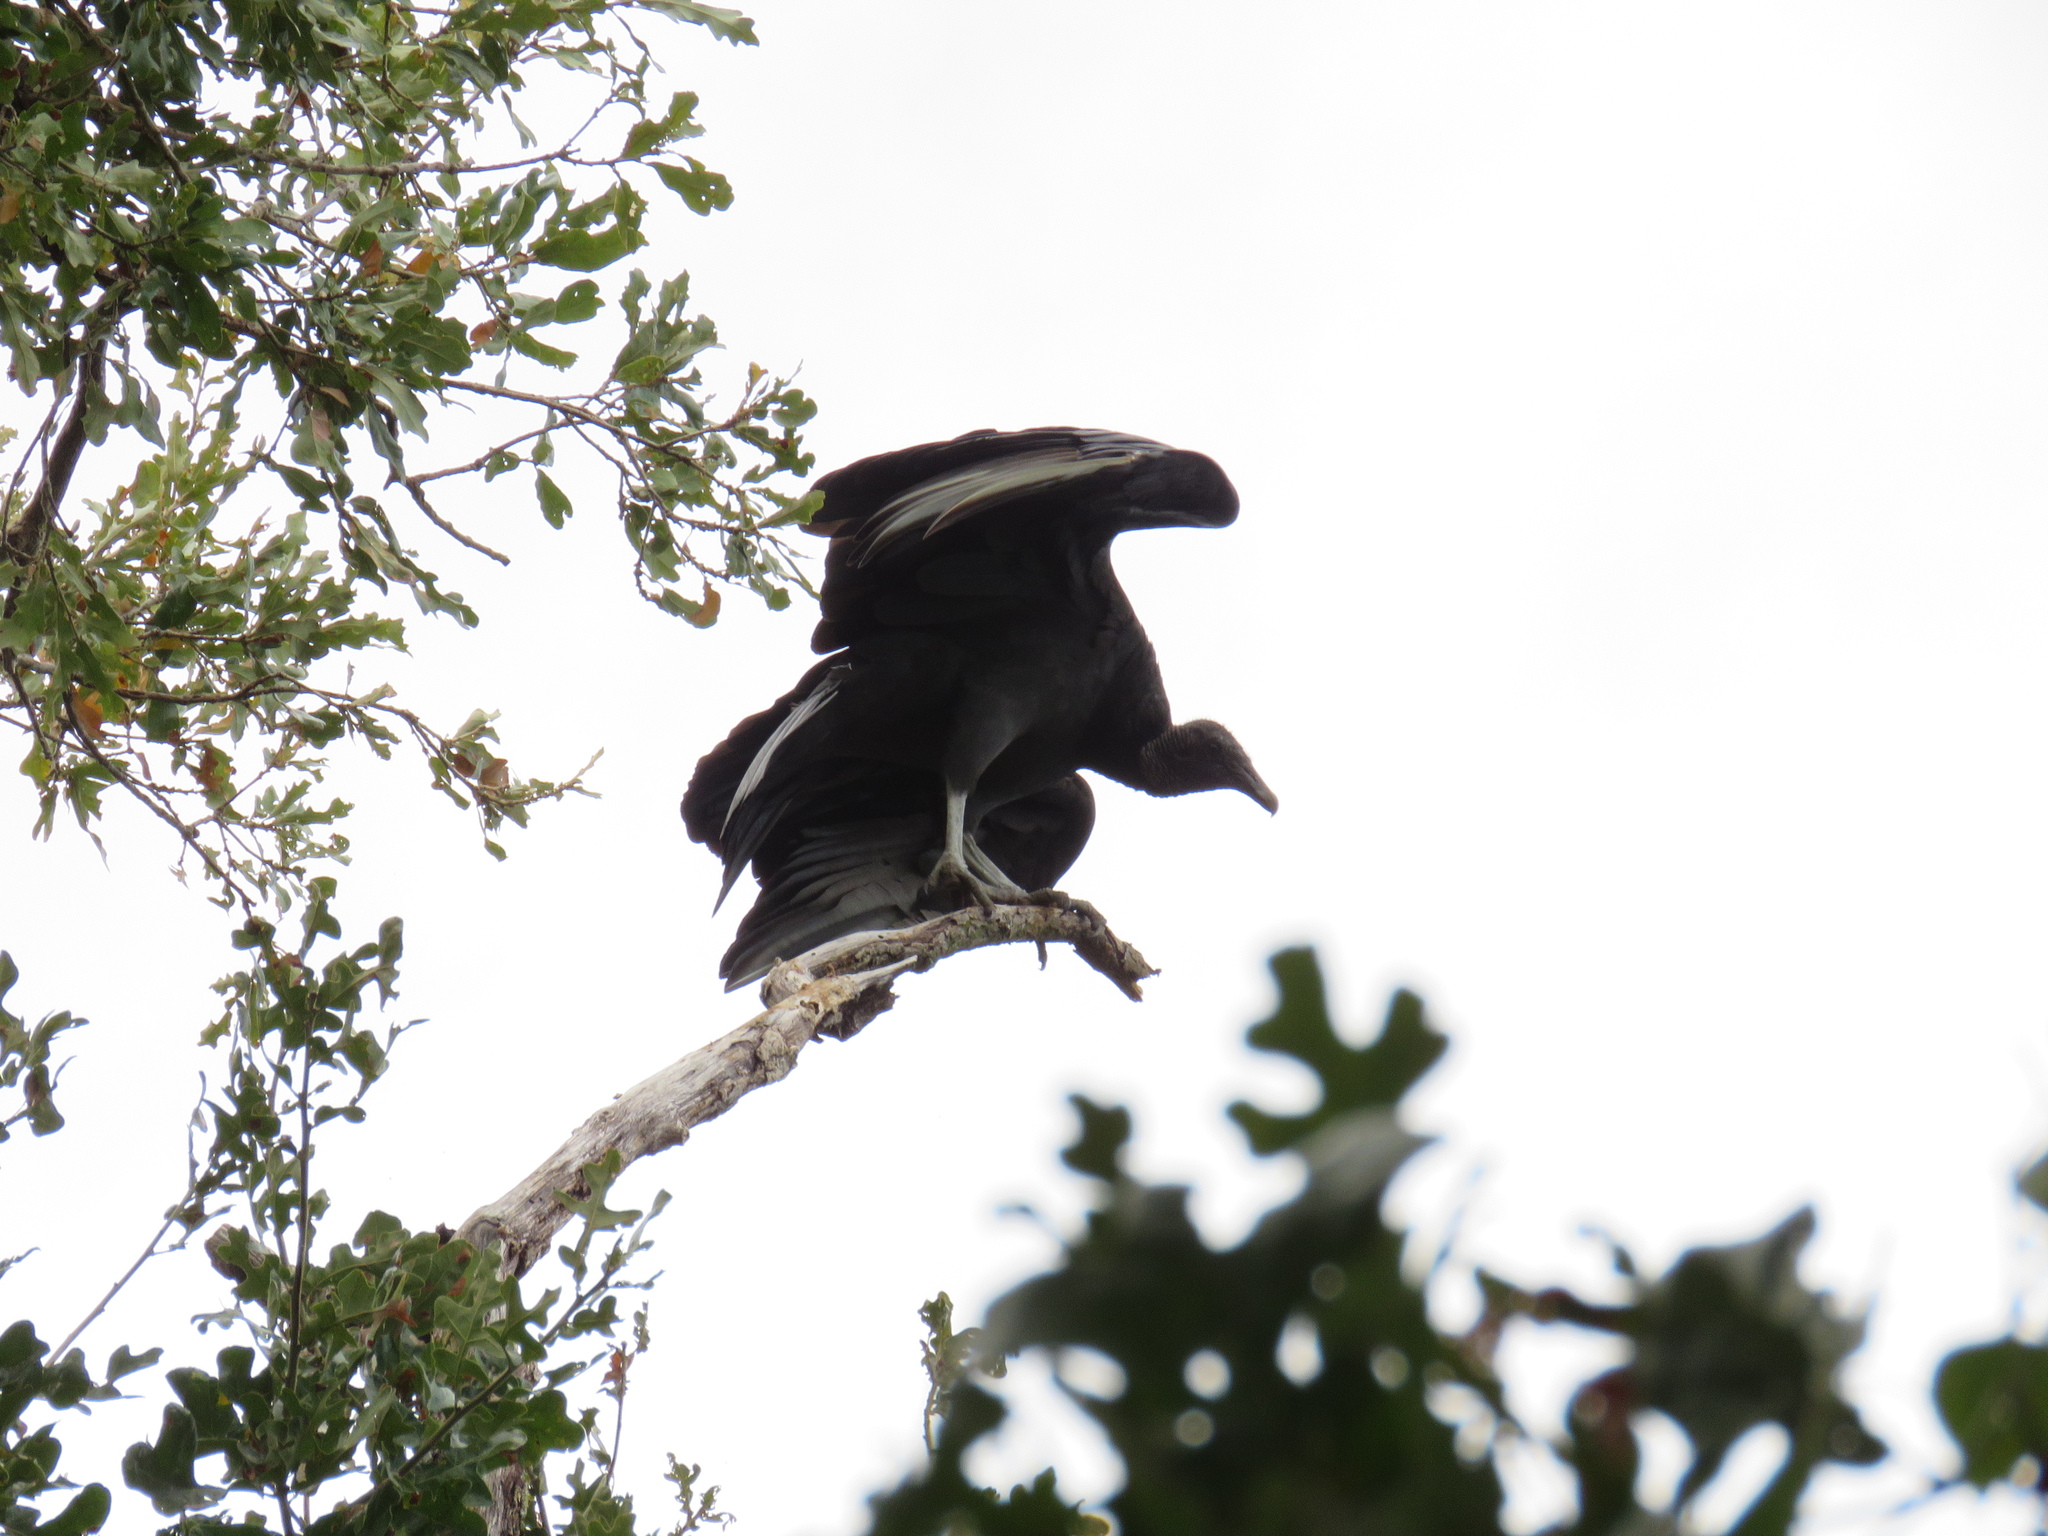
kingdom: Animalia
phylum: Chordata
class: Aves
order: Accipitriformes
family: Cathartidae
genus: Coragyps
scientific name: Coragyps atratus
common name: Black vulture
